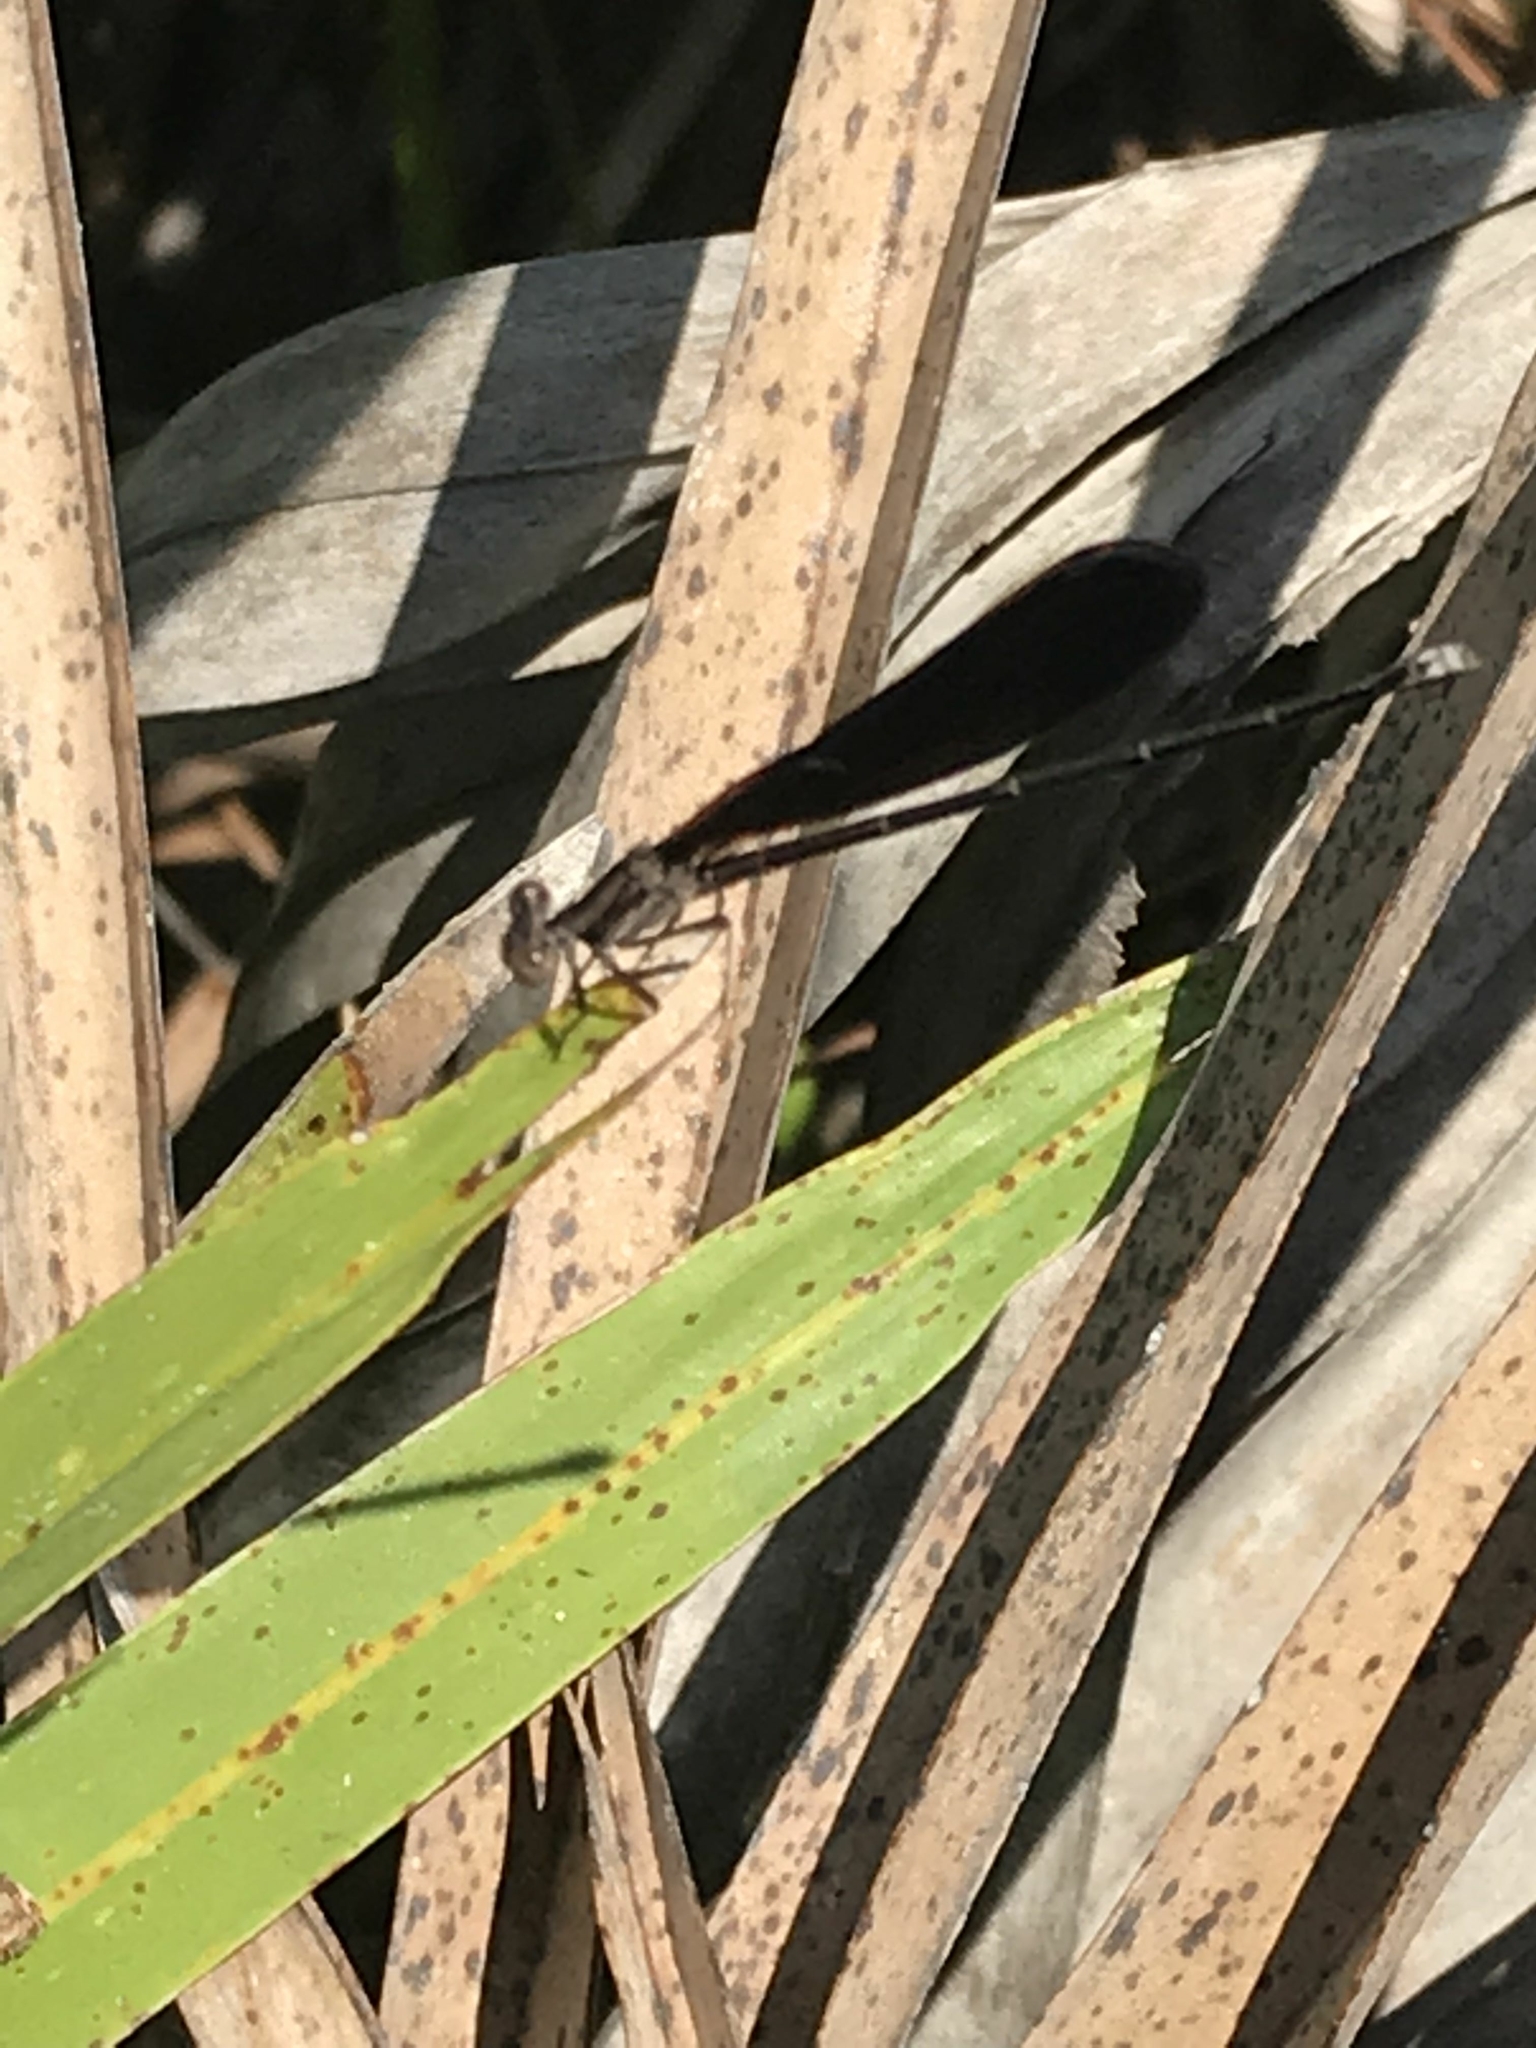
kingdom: Animalia
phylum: Arthropoda
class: Insecta
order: Odonata
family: Coenagrionidae
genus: Argia
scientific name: Argia fumipennis
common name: Variable dancer
